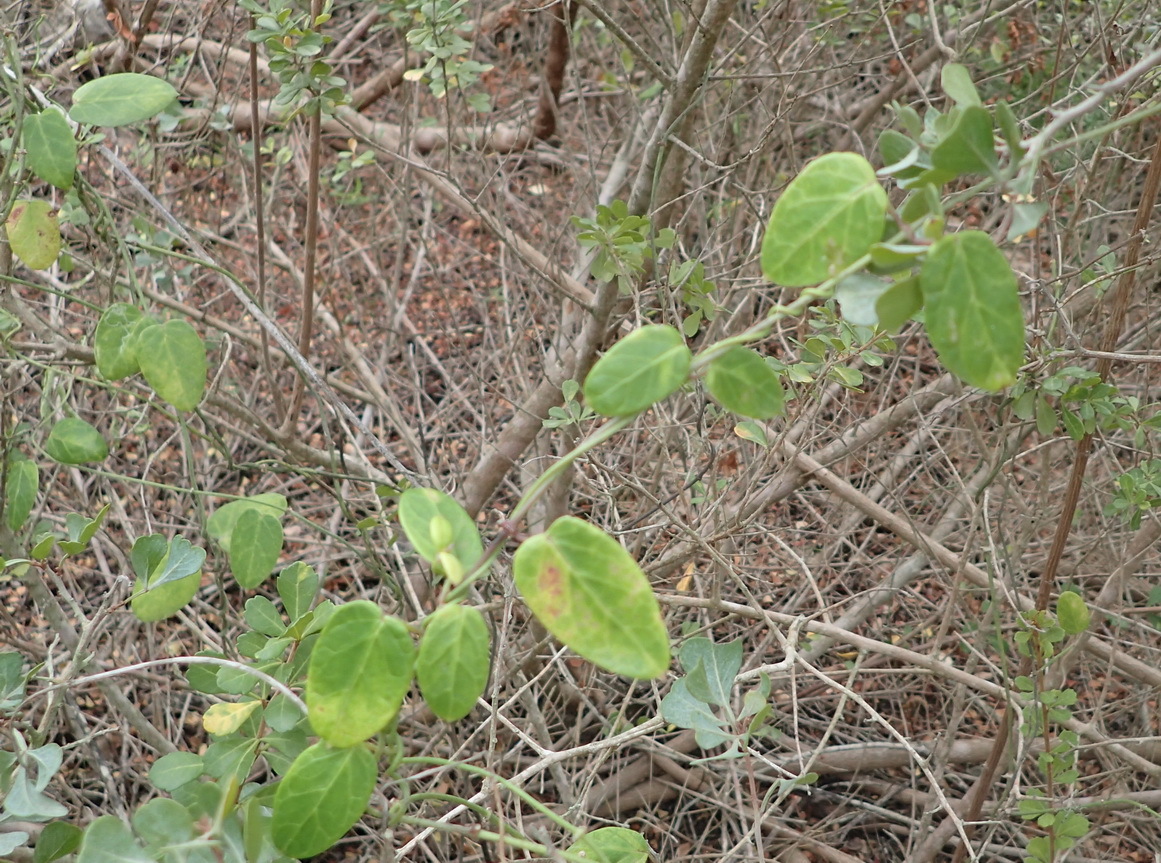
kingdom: Plantae
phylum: Tracheophyta
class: Magnoliopsida
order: Gentianales
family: Apocynaceae
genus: Cynanchum
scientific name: Cynanchum obtusifolium
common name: Monkey-rope
